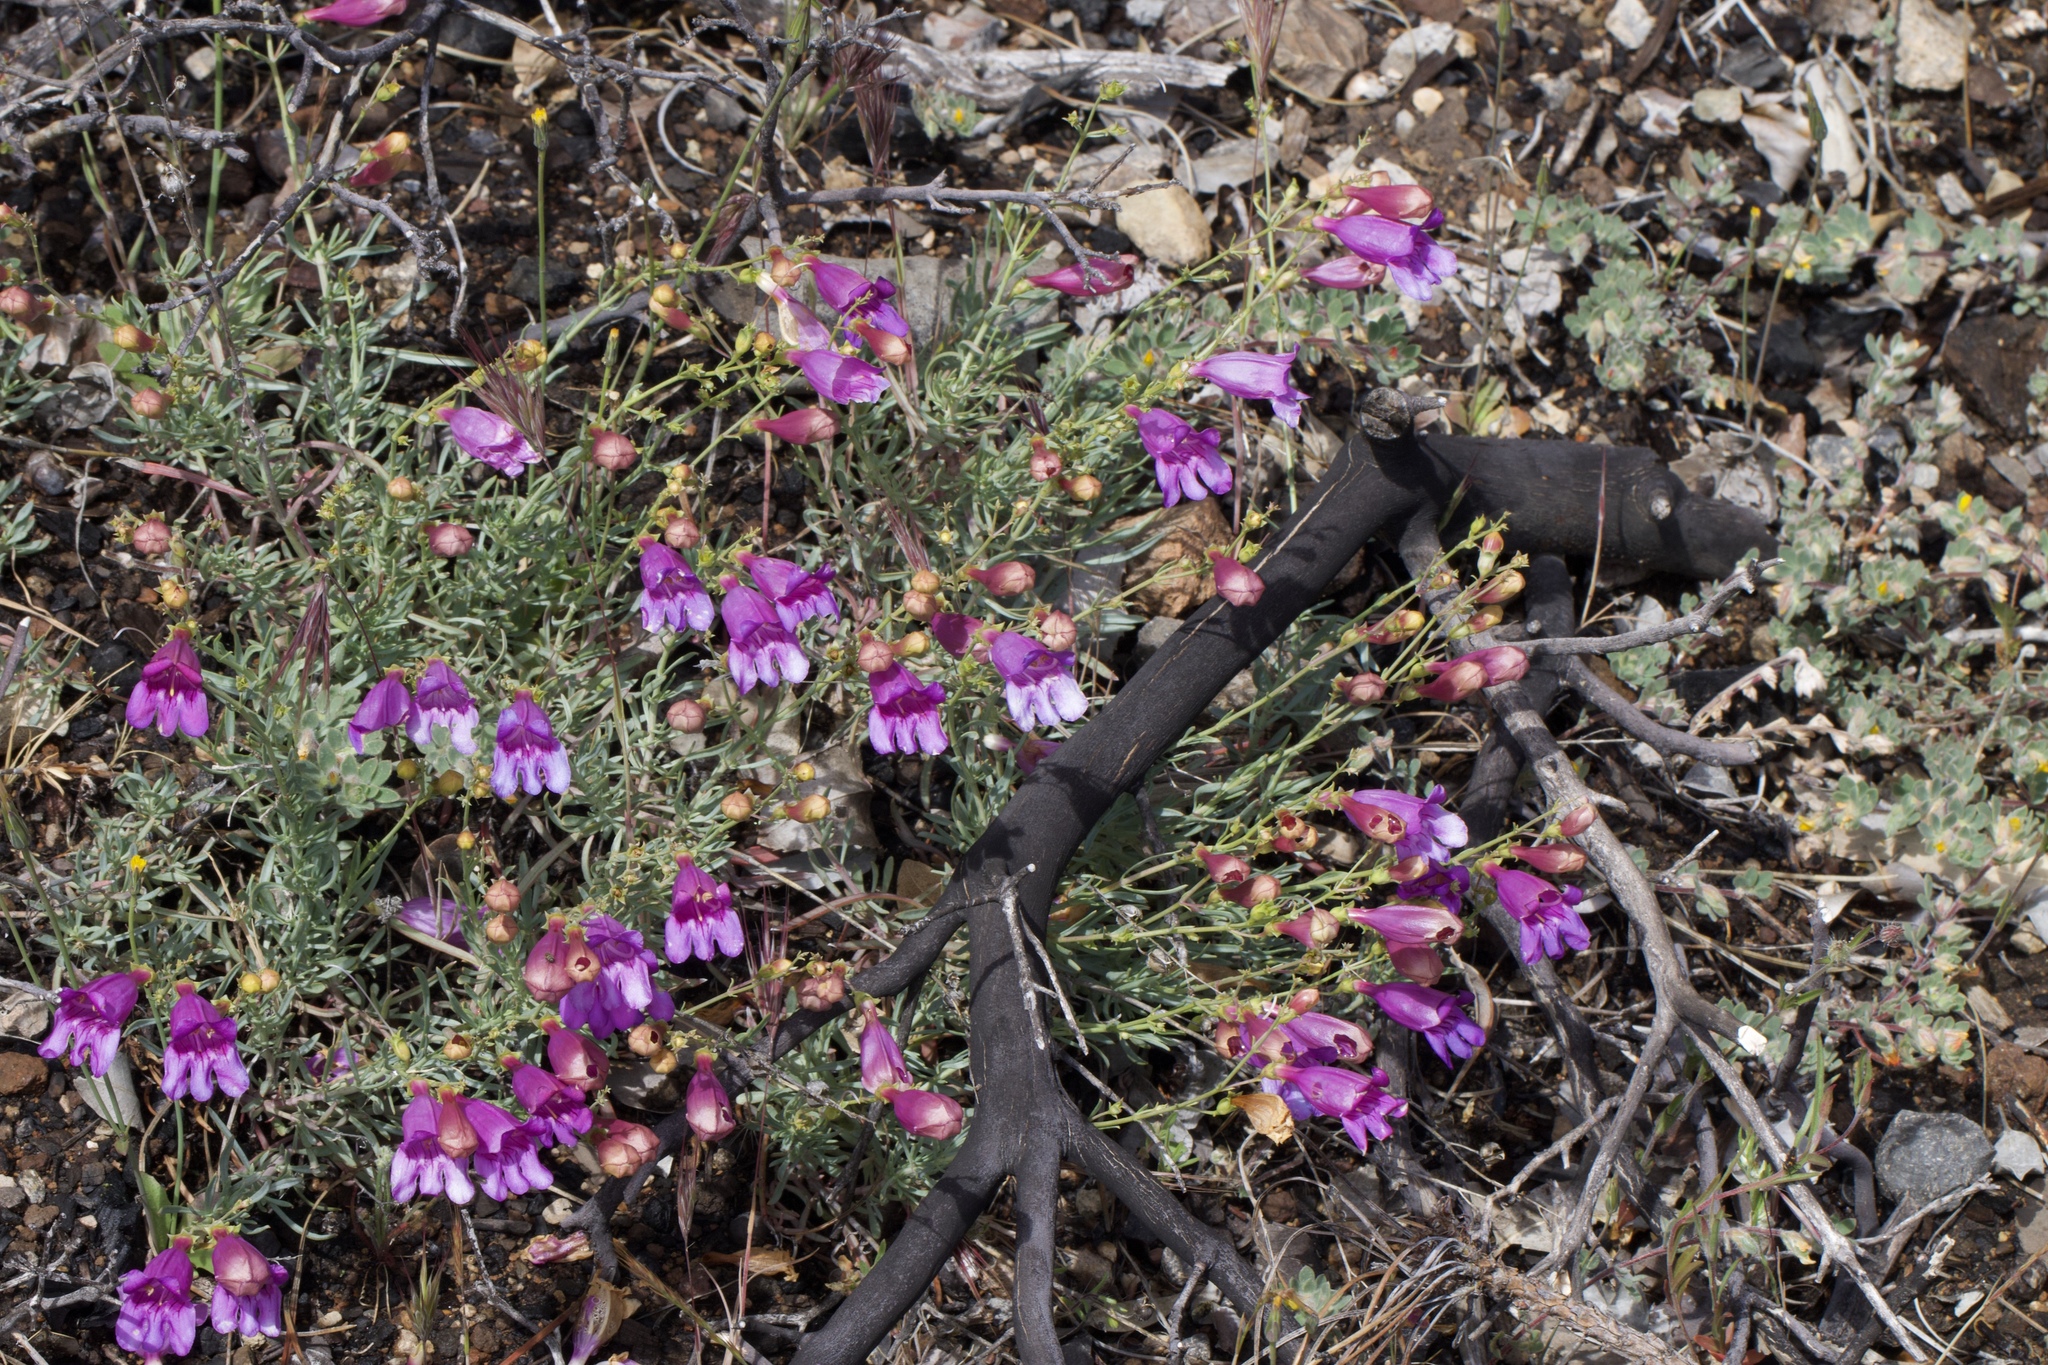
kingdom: Plantae
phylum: Tracheophyta
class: Magnoliopsida
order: Lamiales
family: Plantaginaceae
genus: Penstemon
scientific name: Penstemon heterophyllus
